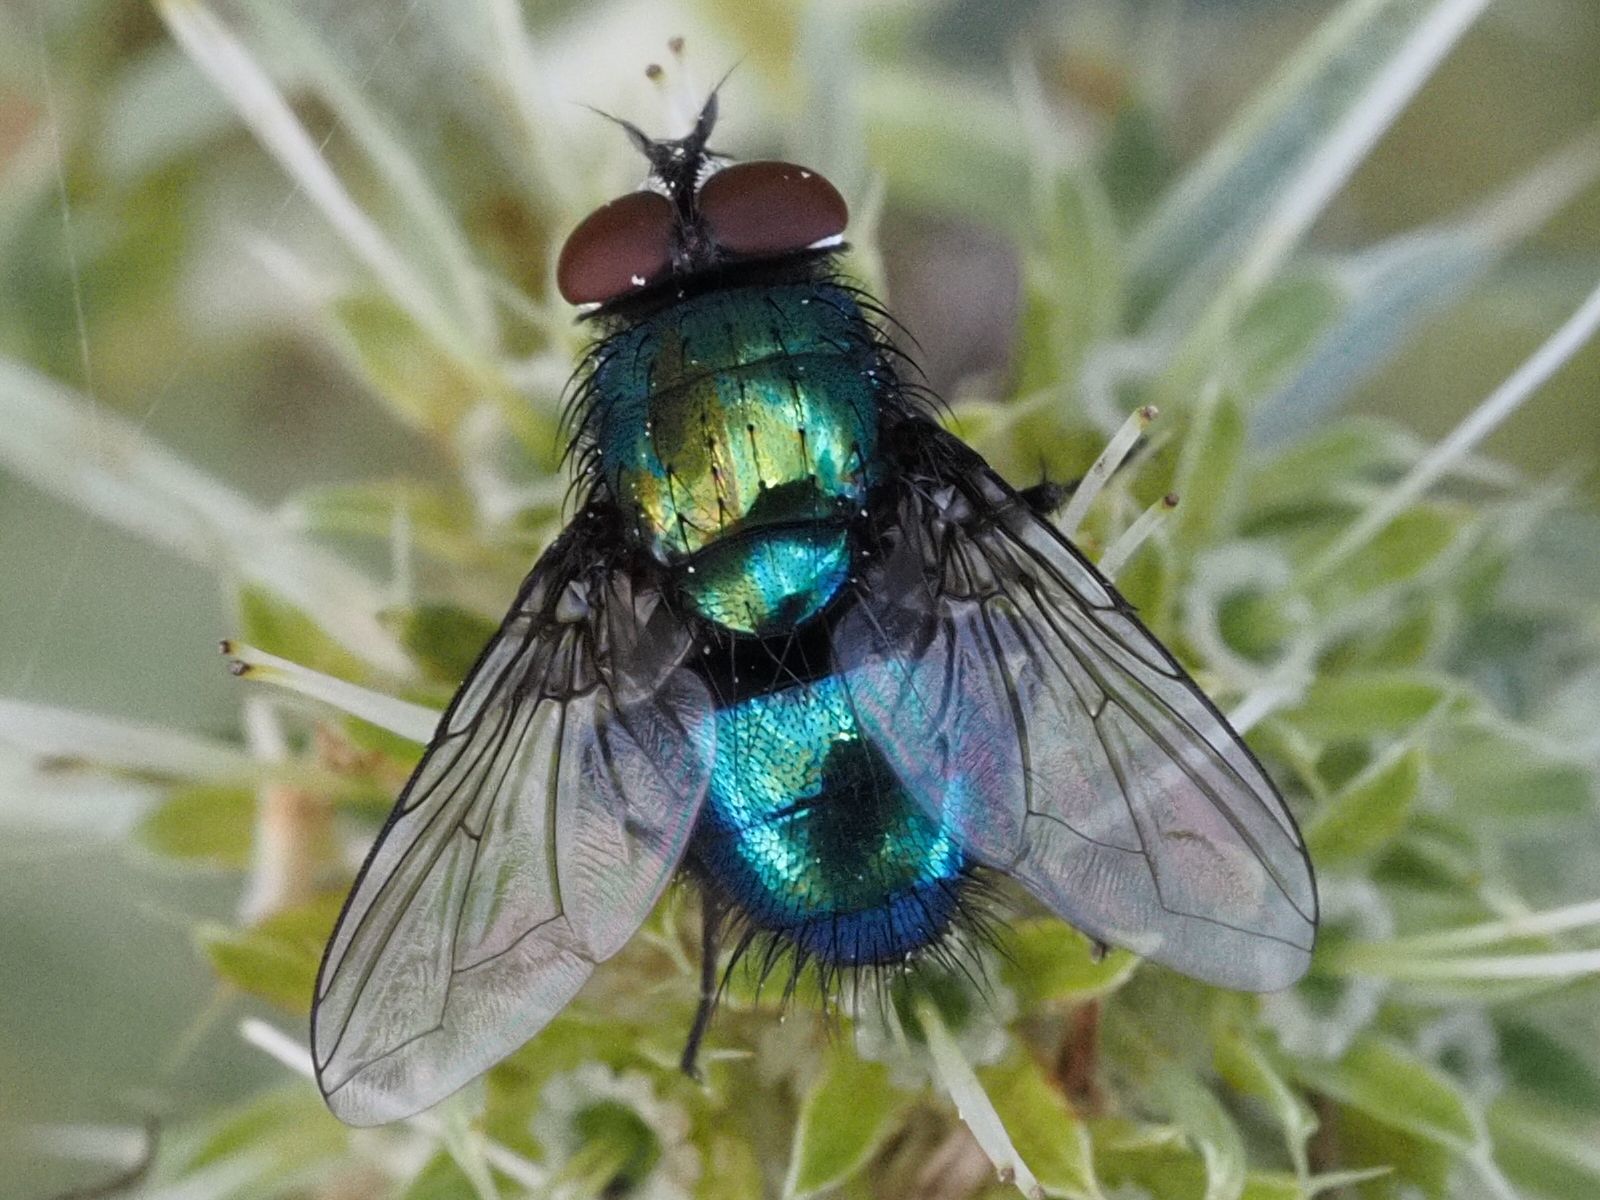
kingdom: Animalia
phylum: Arthropoda
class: Insecta
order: Diptera
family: Calliphoridae
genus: Lucilia
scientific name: Lucilia silvarum
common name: Marsh greenbottle
